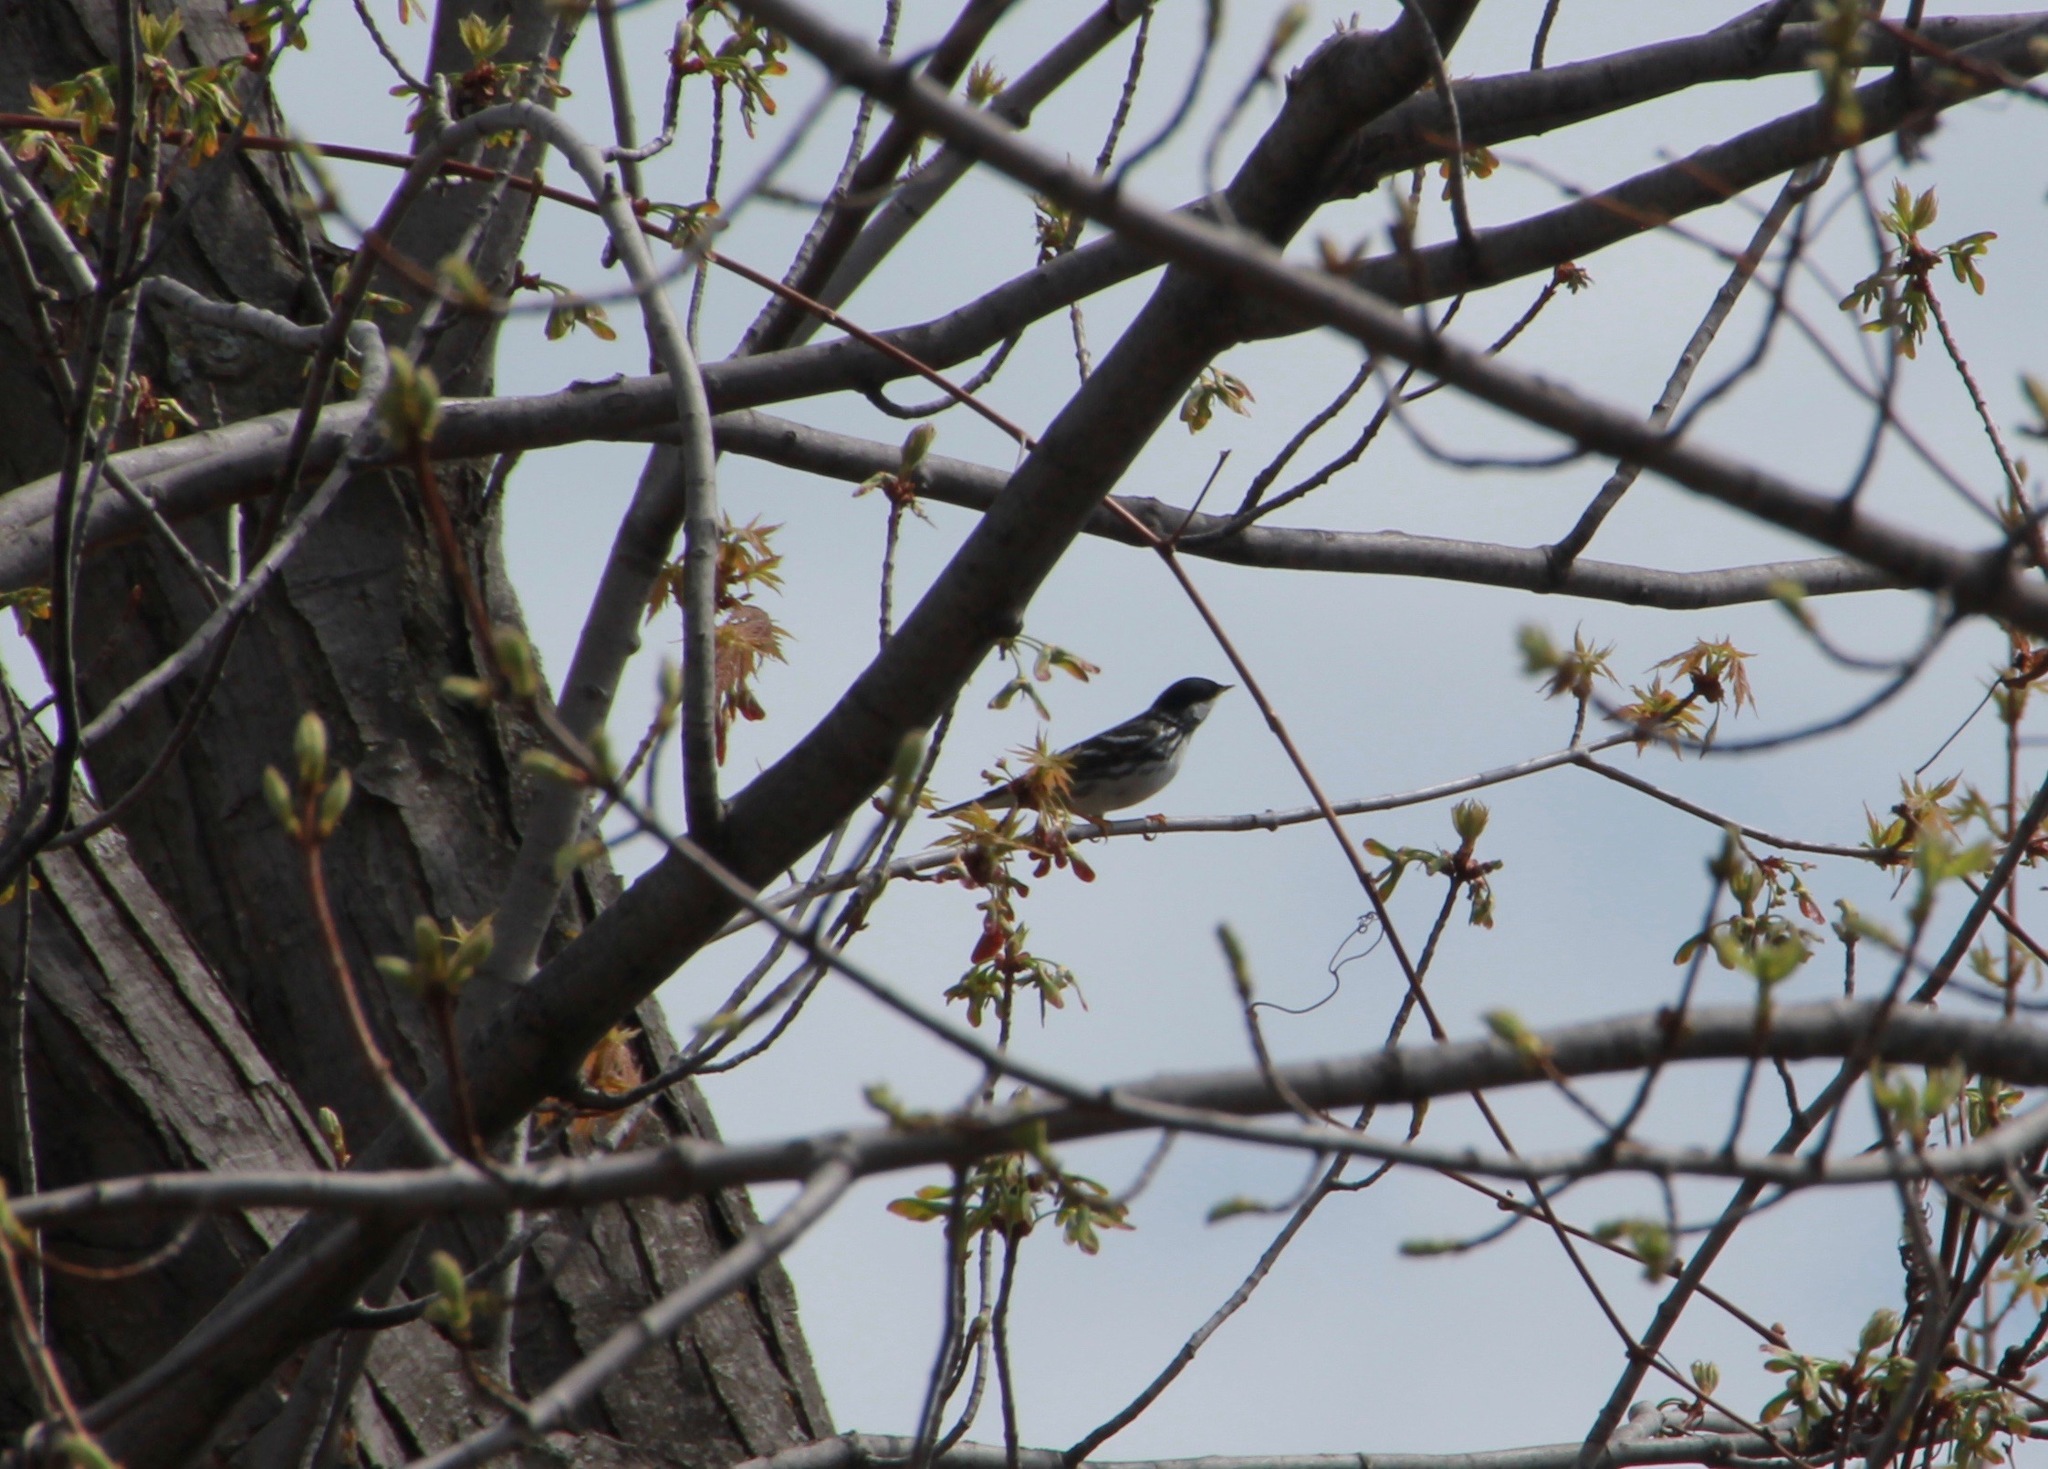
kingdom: Animalia
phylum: Chordata
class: Aves
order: Passeriformes
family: Parulidae
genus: Setophaga
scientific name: Setophaga striata
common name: Blackpoll warbler
